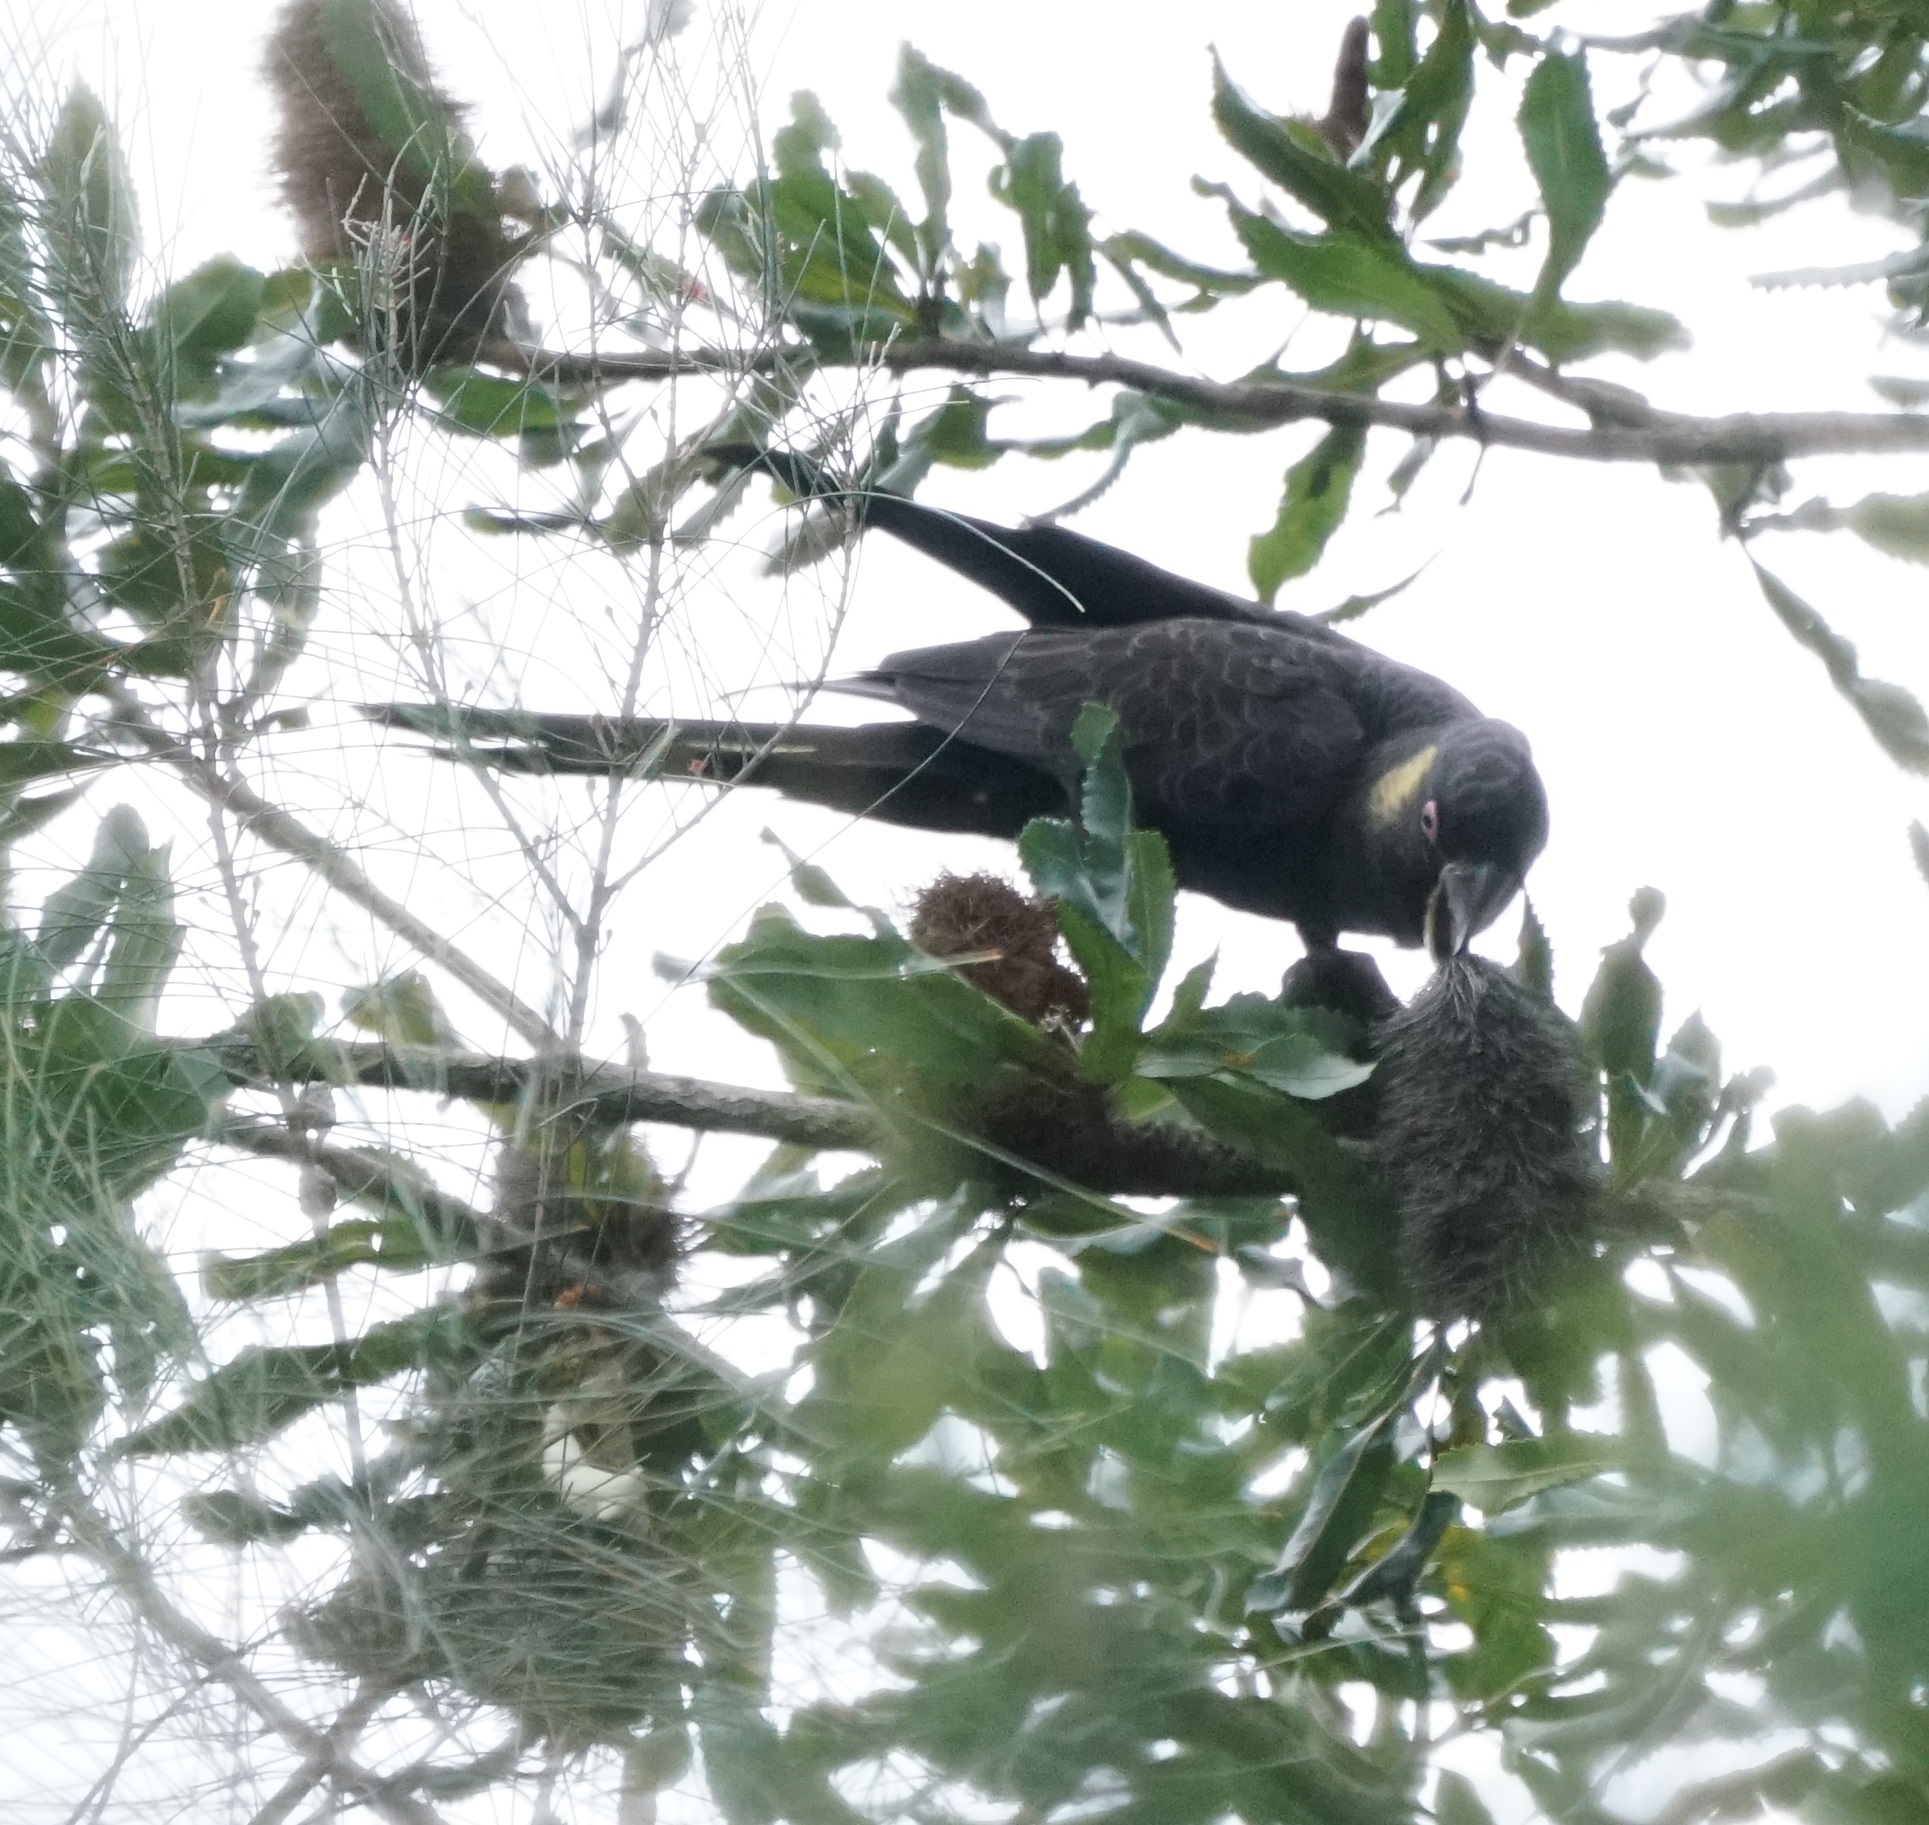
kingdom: Animalia
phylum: Chordata
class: Aves
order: Psittaciformes
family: Cacatuidae
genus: Zanda
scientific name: Zanda funerea
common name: Yellow-tailed black-cockatoo
